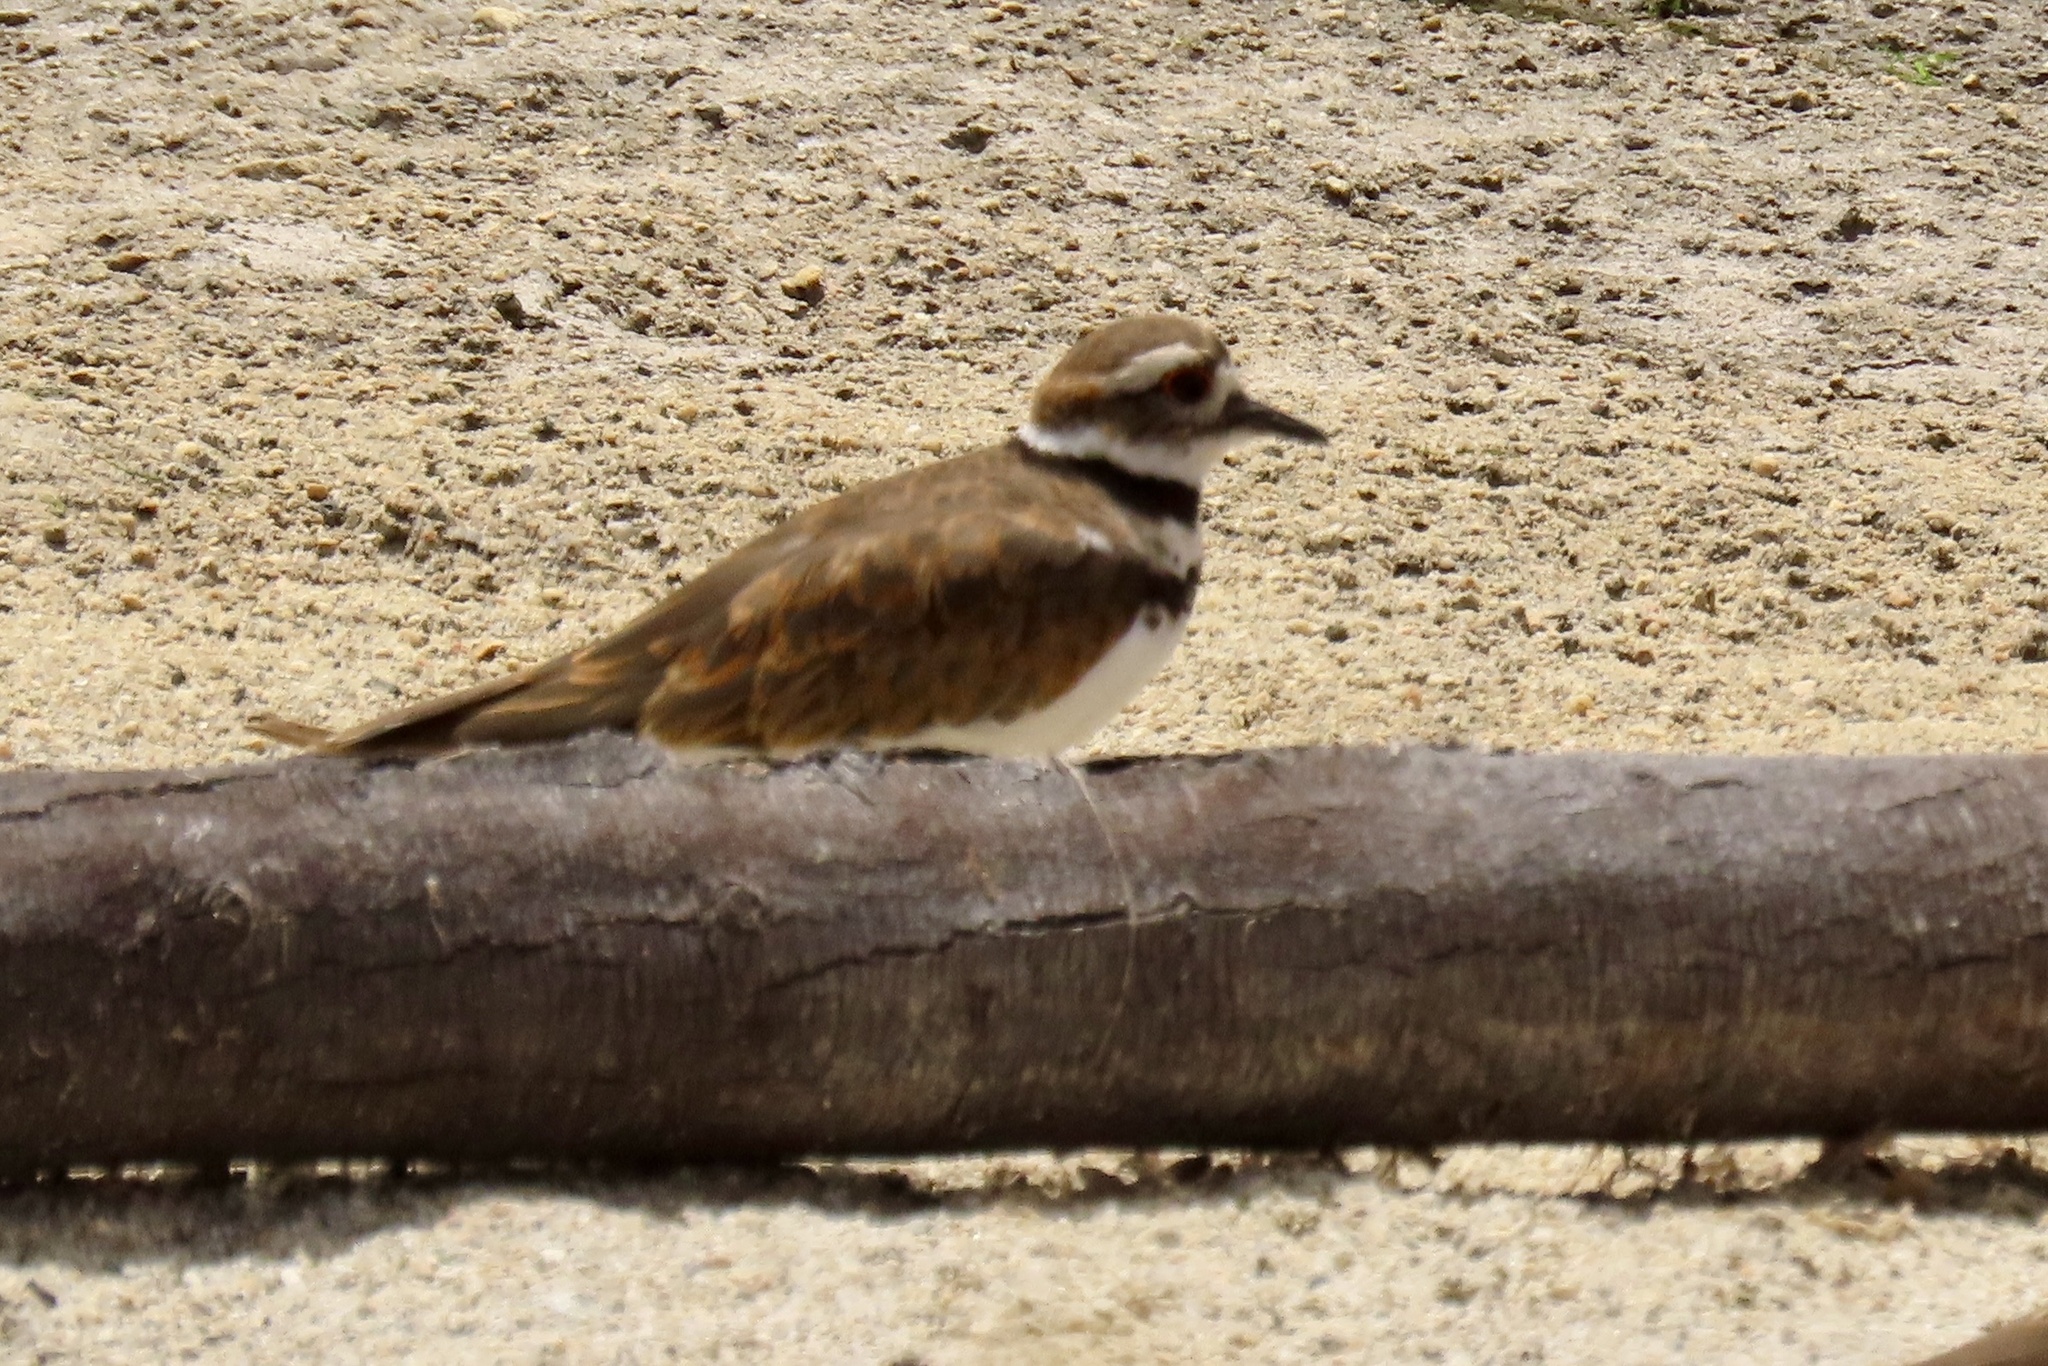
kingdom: Animalia
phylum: Chordata
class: Aves
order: Charadriiformes
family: Charadriidae
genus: Charadrius
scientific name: Charadrius vociferus
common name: Killdeer
